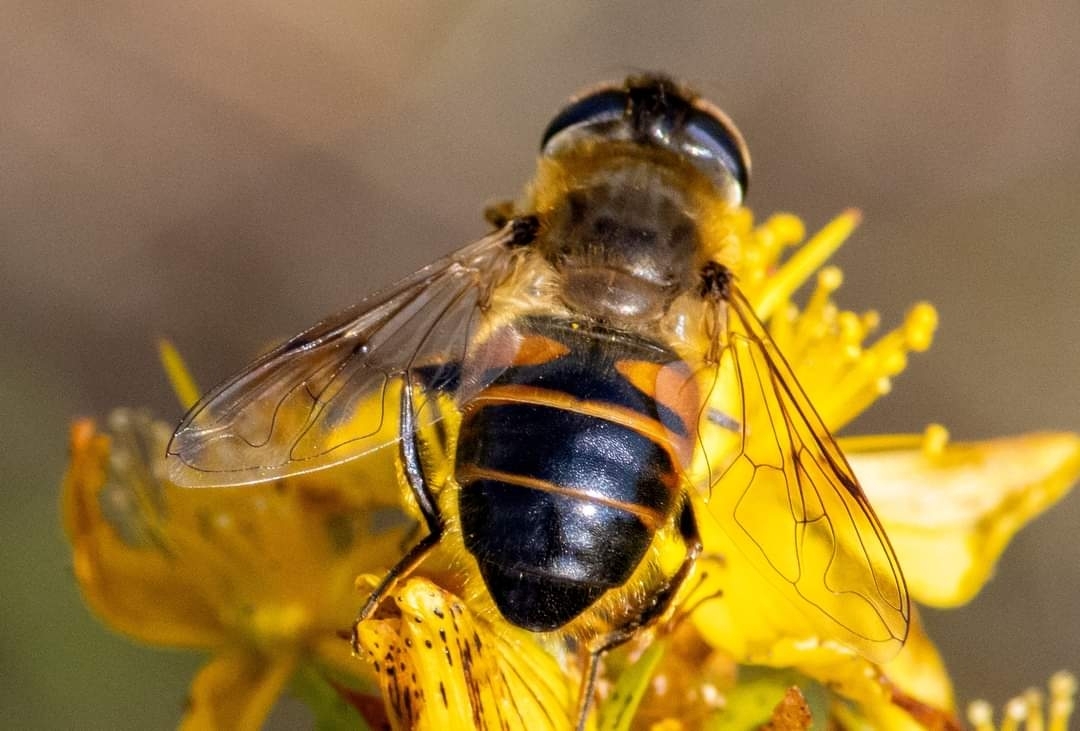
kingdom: Animalia
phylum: Arthropoda
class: Insecta
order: Diptera
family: Syrphidae
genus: Eristalis
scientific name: Eristalis tenax
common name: Drone fly
